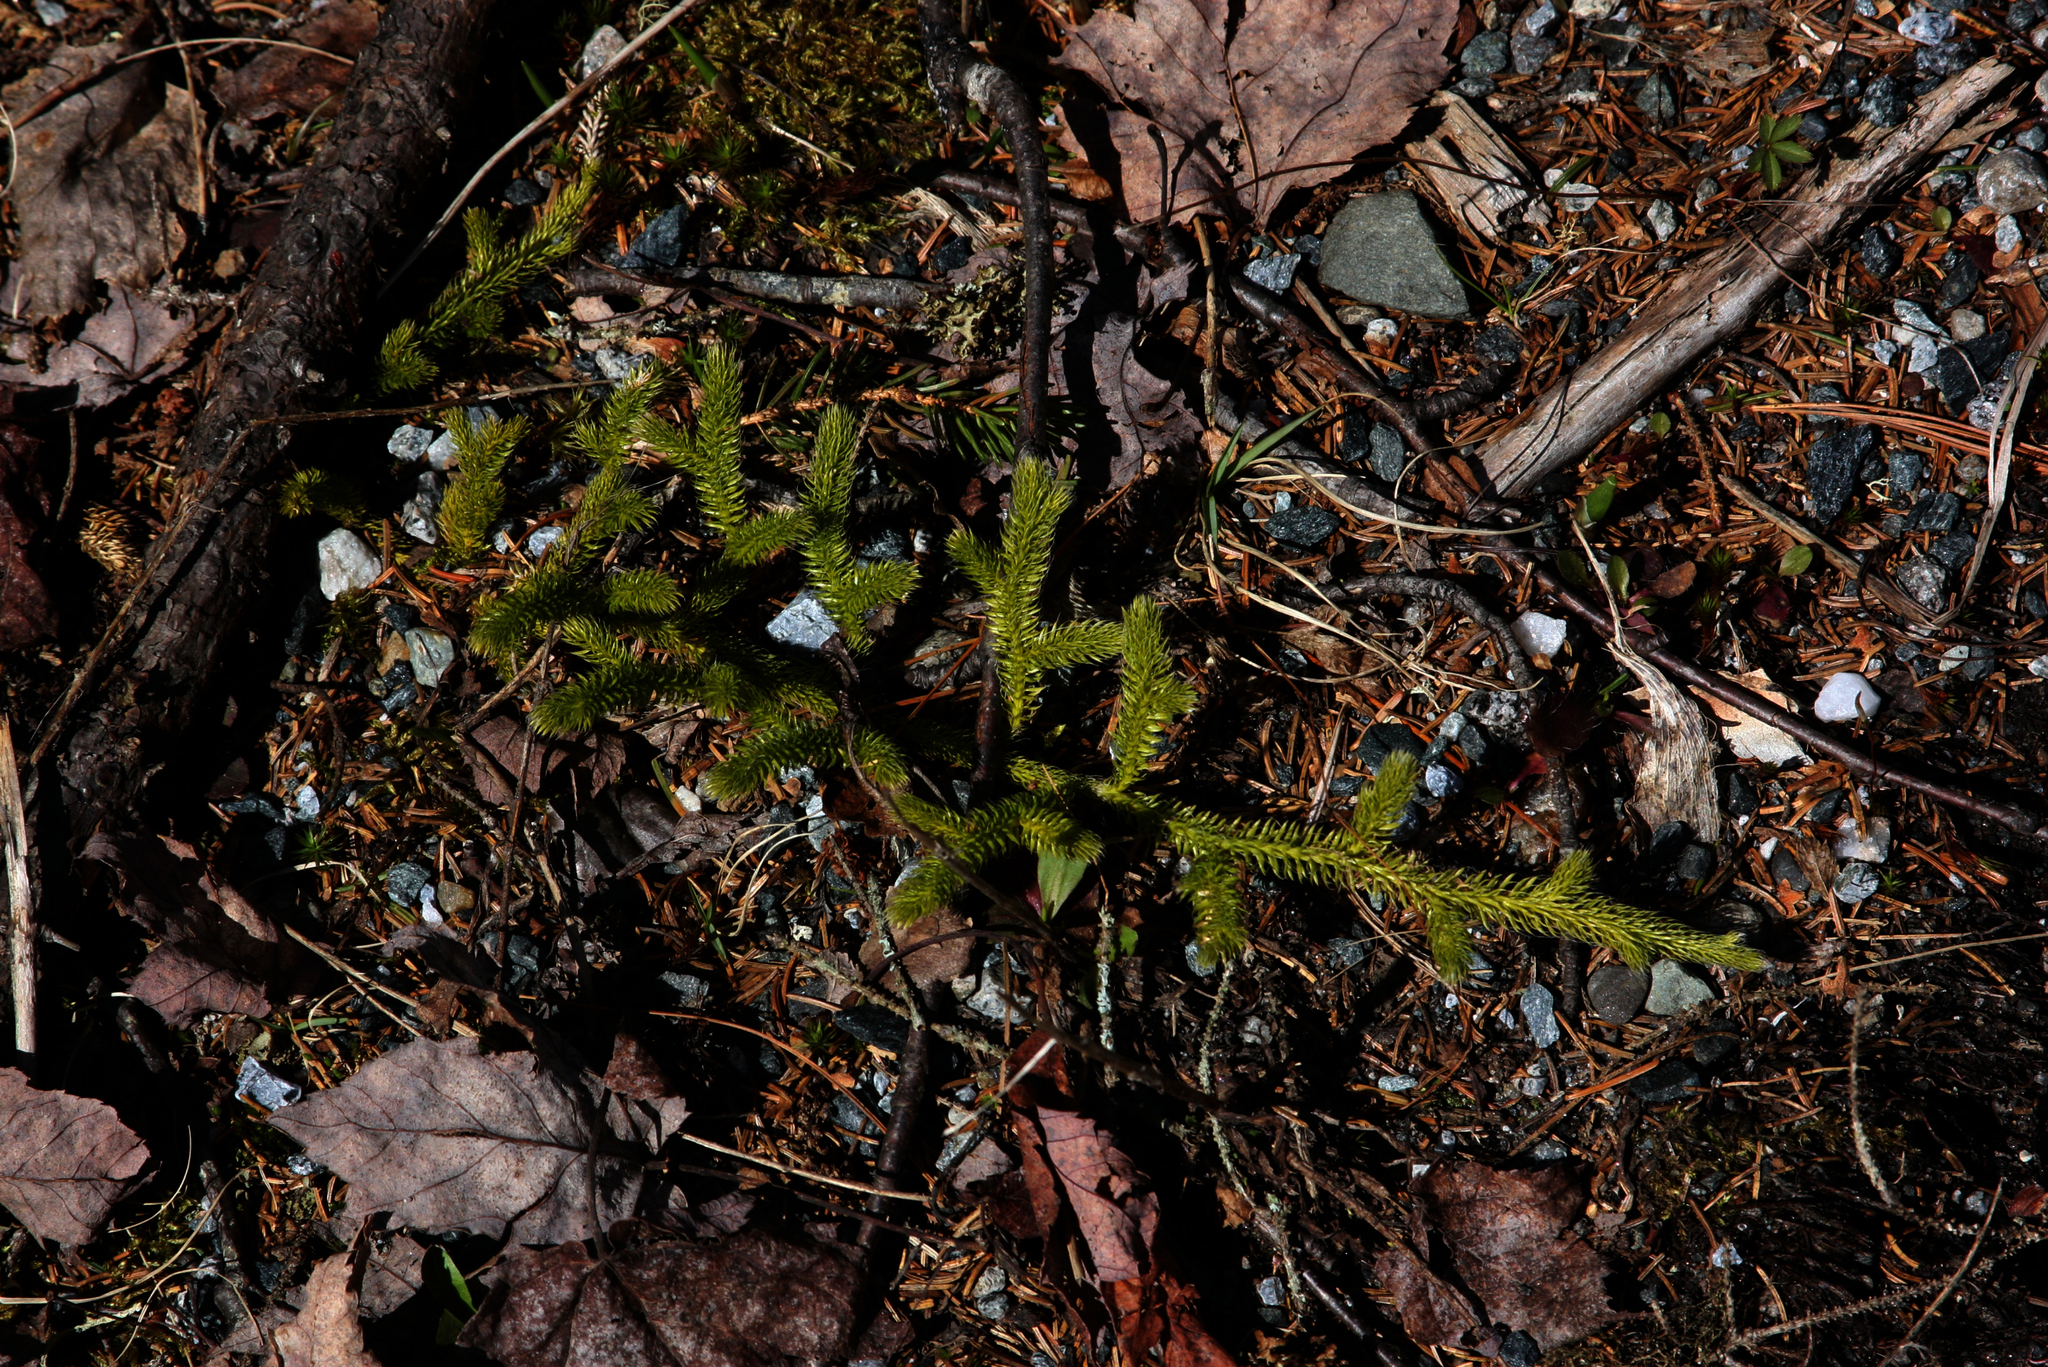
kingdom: Plantae
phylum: Tracheophyta
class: Lycopodiopsida
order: Lycopodiales
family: Lycopodiaceae
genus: Lycopodium
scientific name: Lycopodium clavatum
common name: Stag's-horn clubmoss
